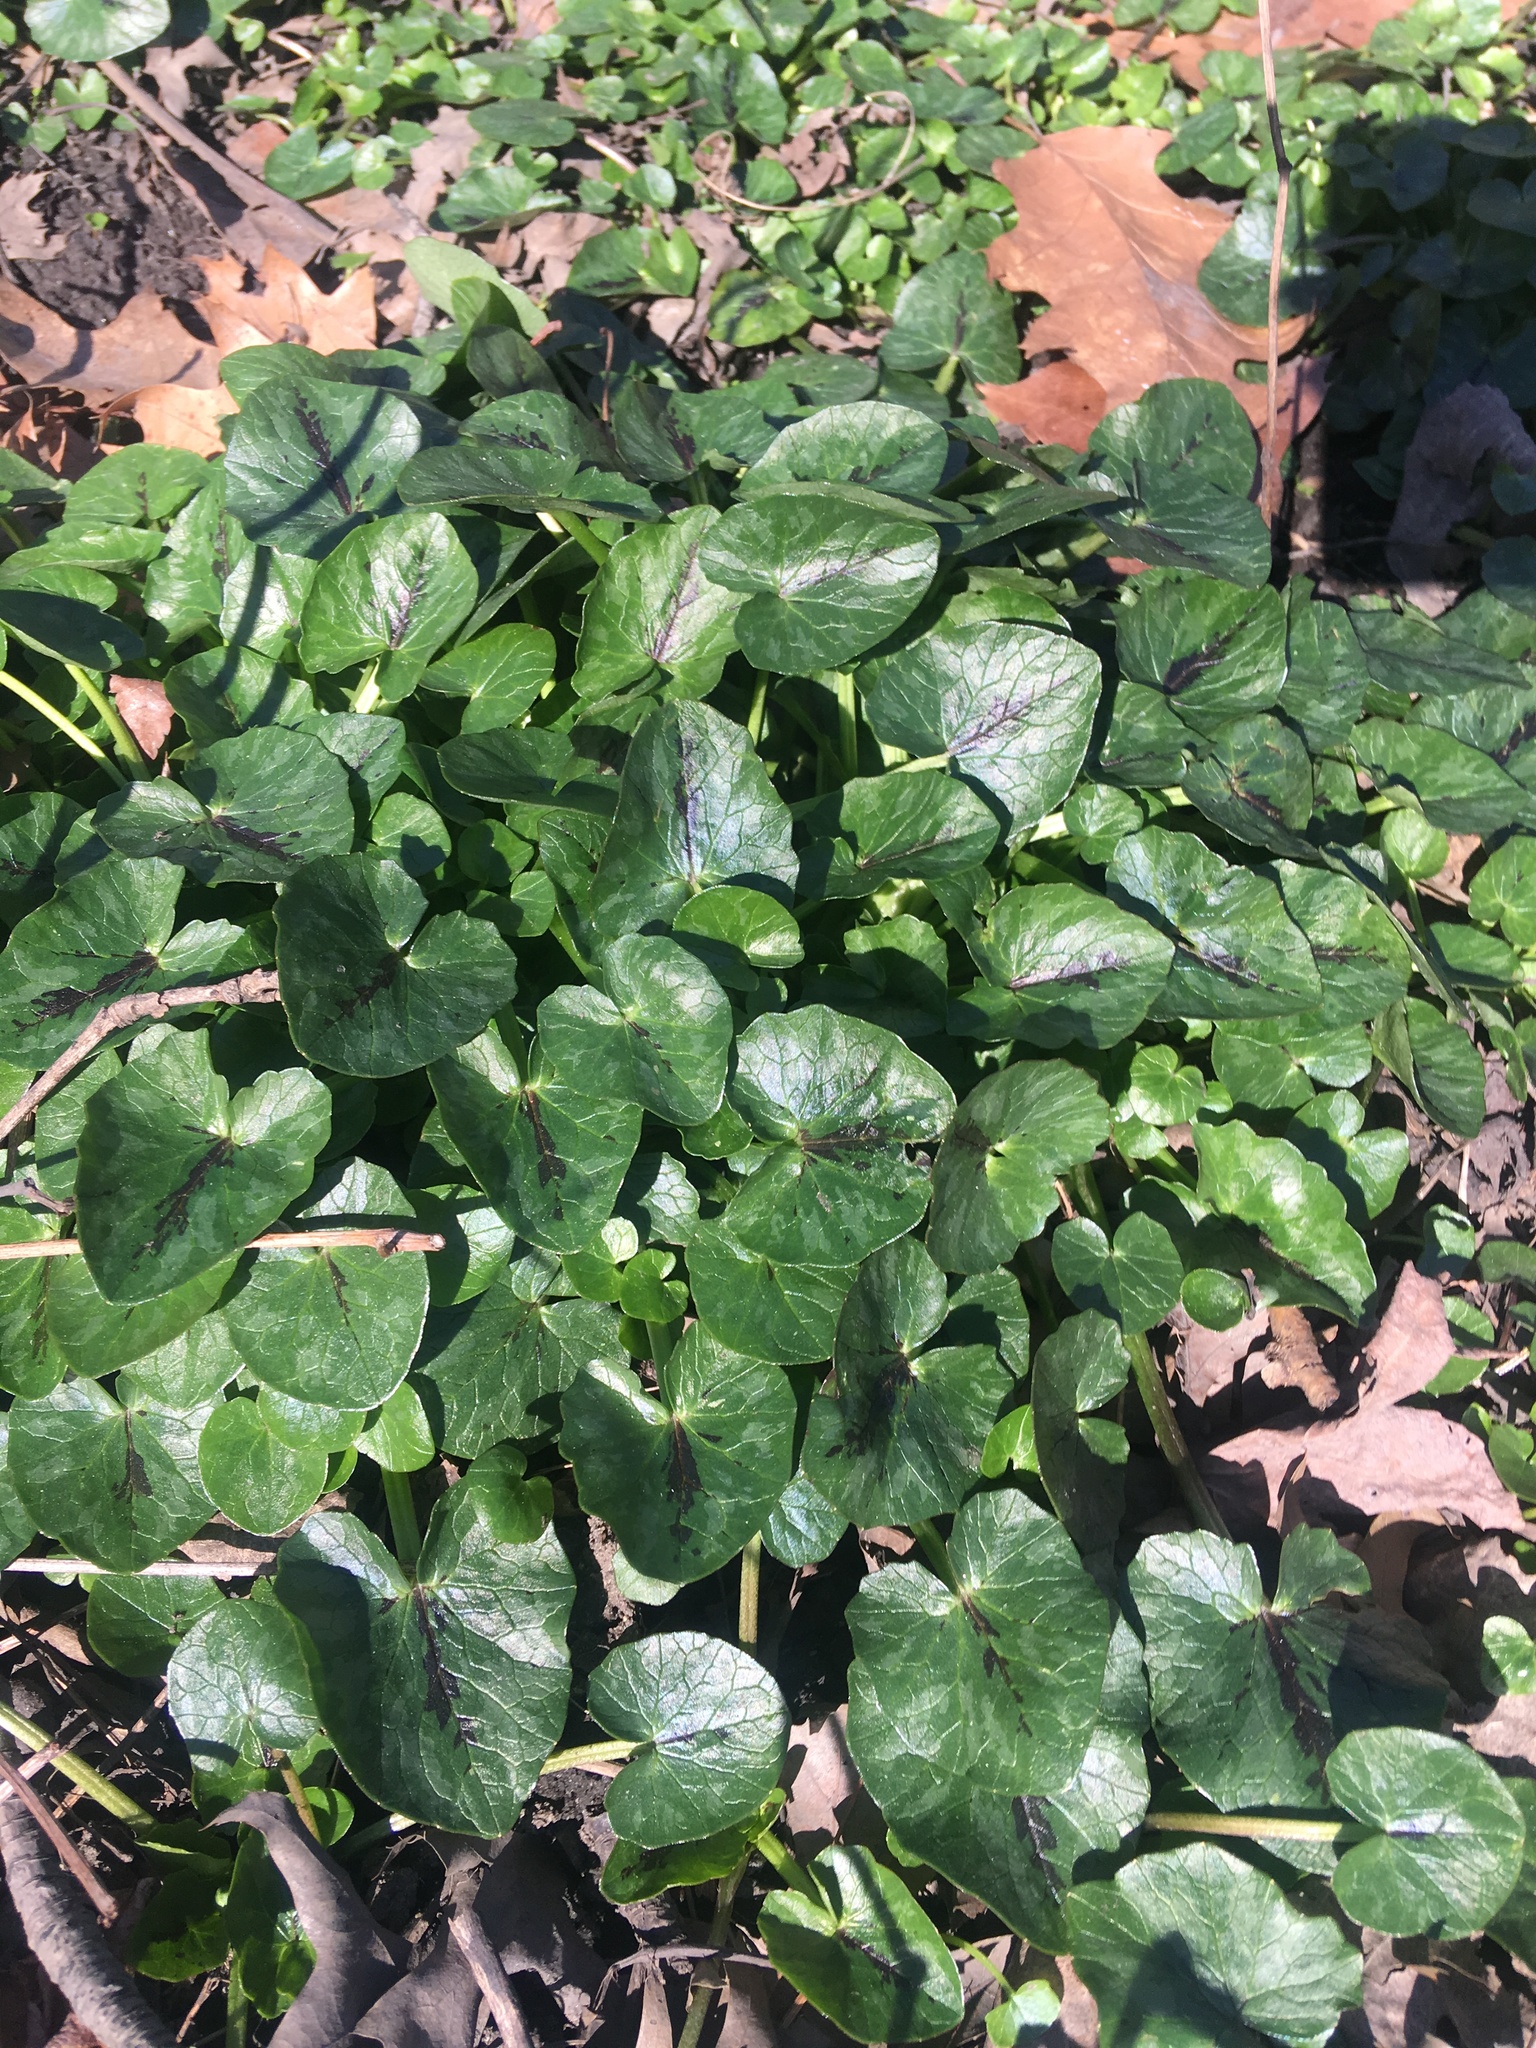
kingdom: Plantae
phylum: Tracheophyta
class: Magnoliopsida
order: Ranunculales
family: Ranunculaceae
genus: Ficaria
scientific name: Ficaria verna
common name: Lesser celandine
